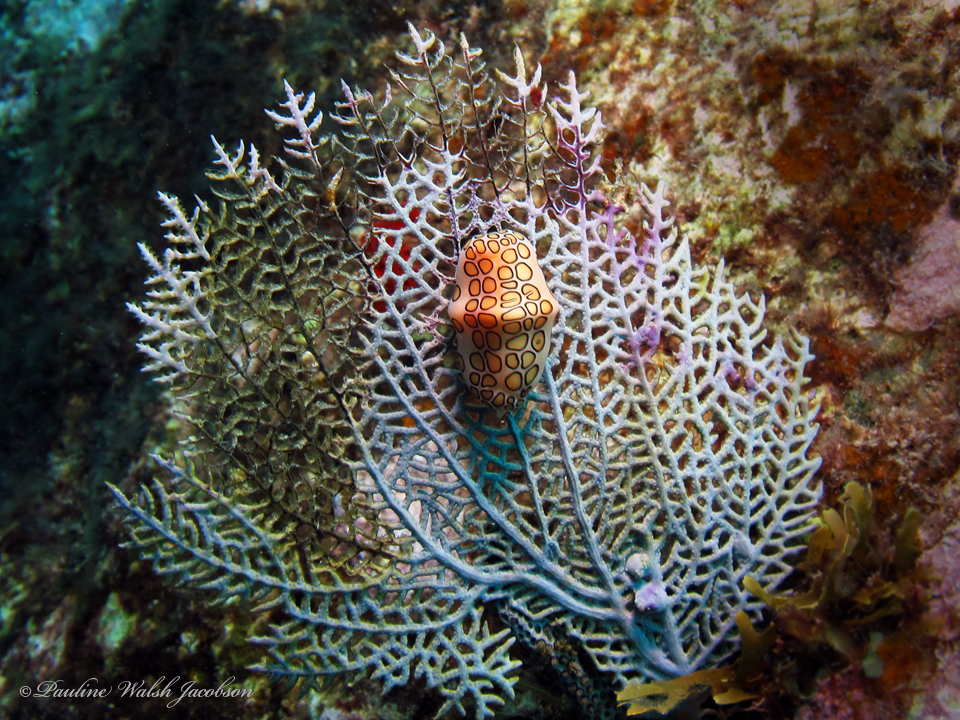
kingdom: Animalia
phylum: Mollusca
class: Gastropoda
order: Littorinimorpha
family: Ovulidae
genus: Cyphoma
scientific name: Cyphoma gibbosum
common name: Flamingo tongue
